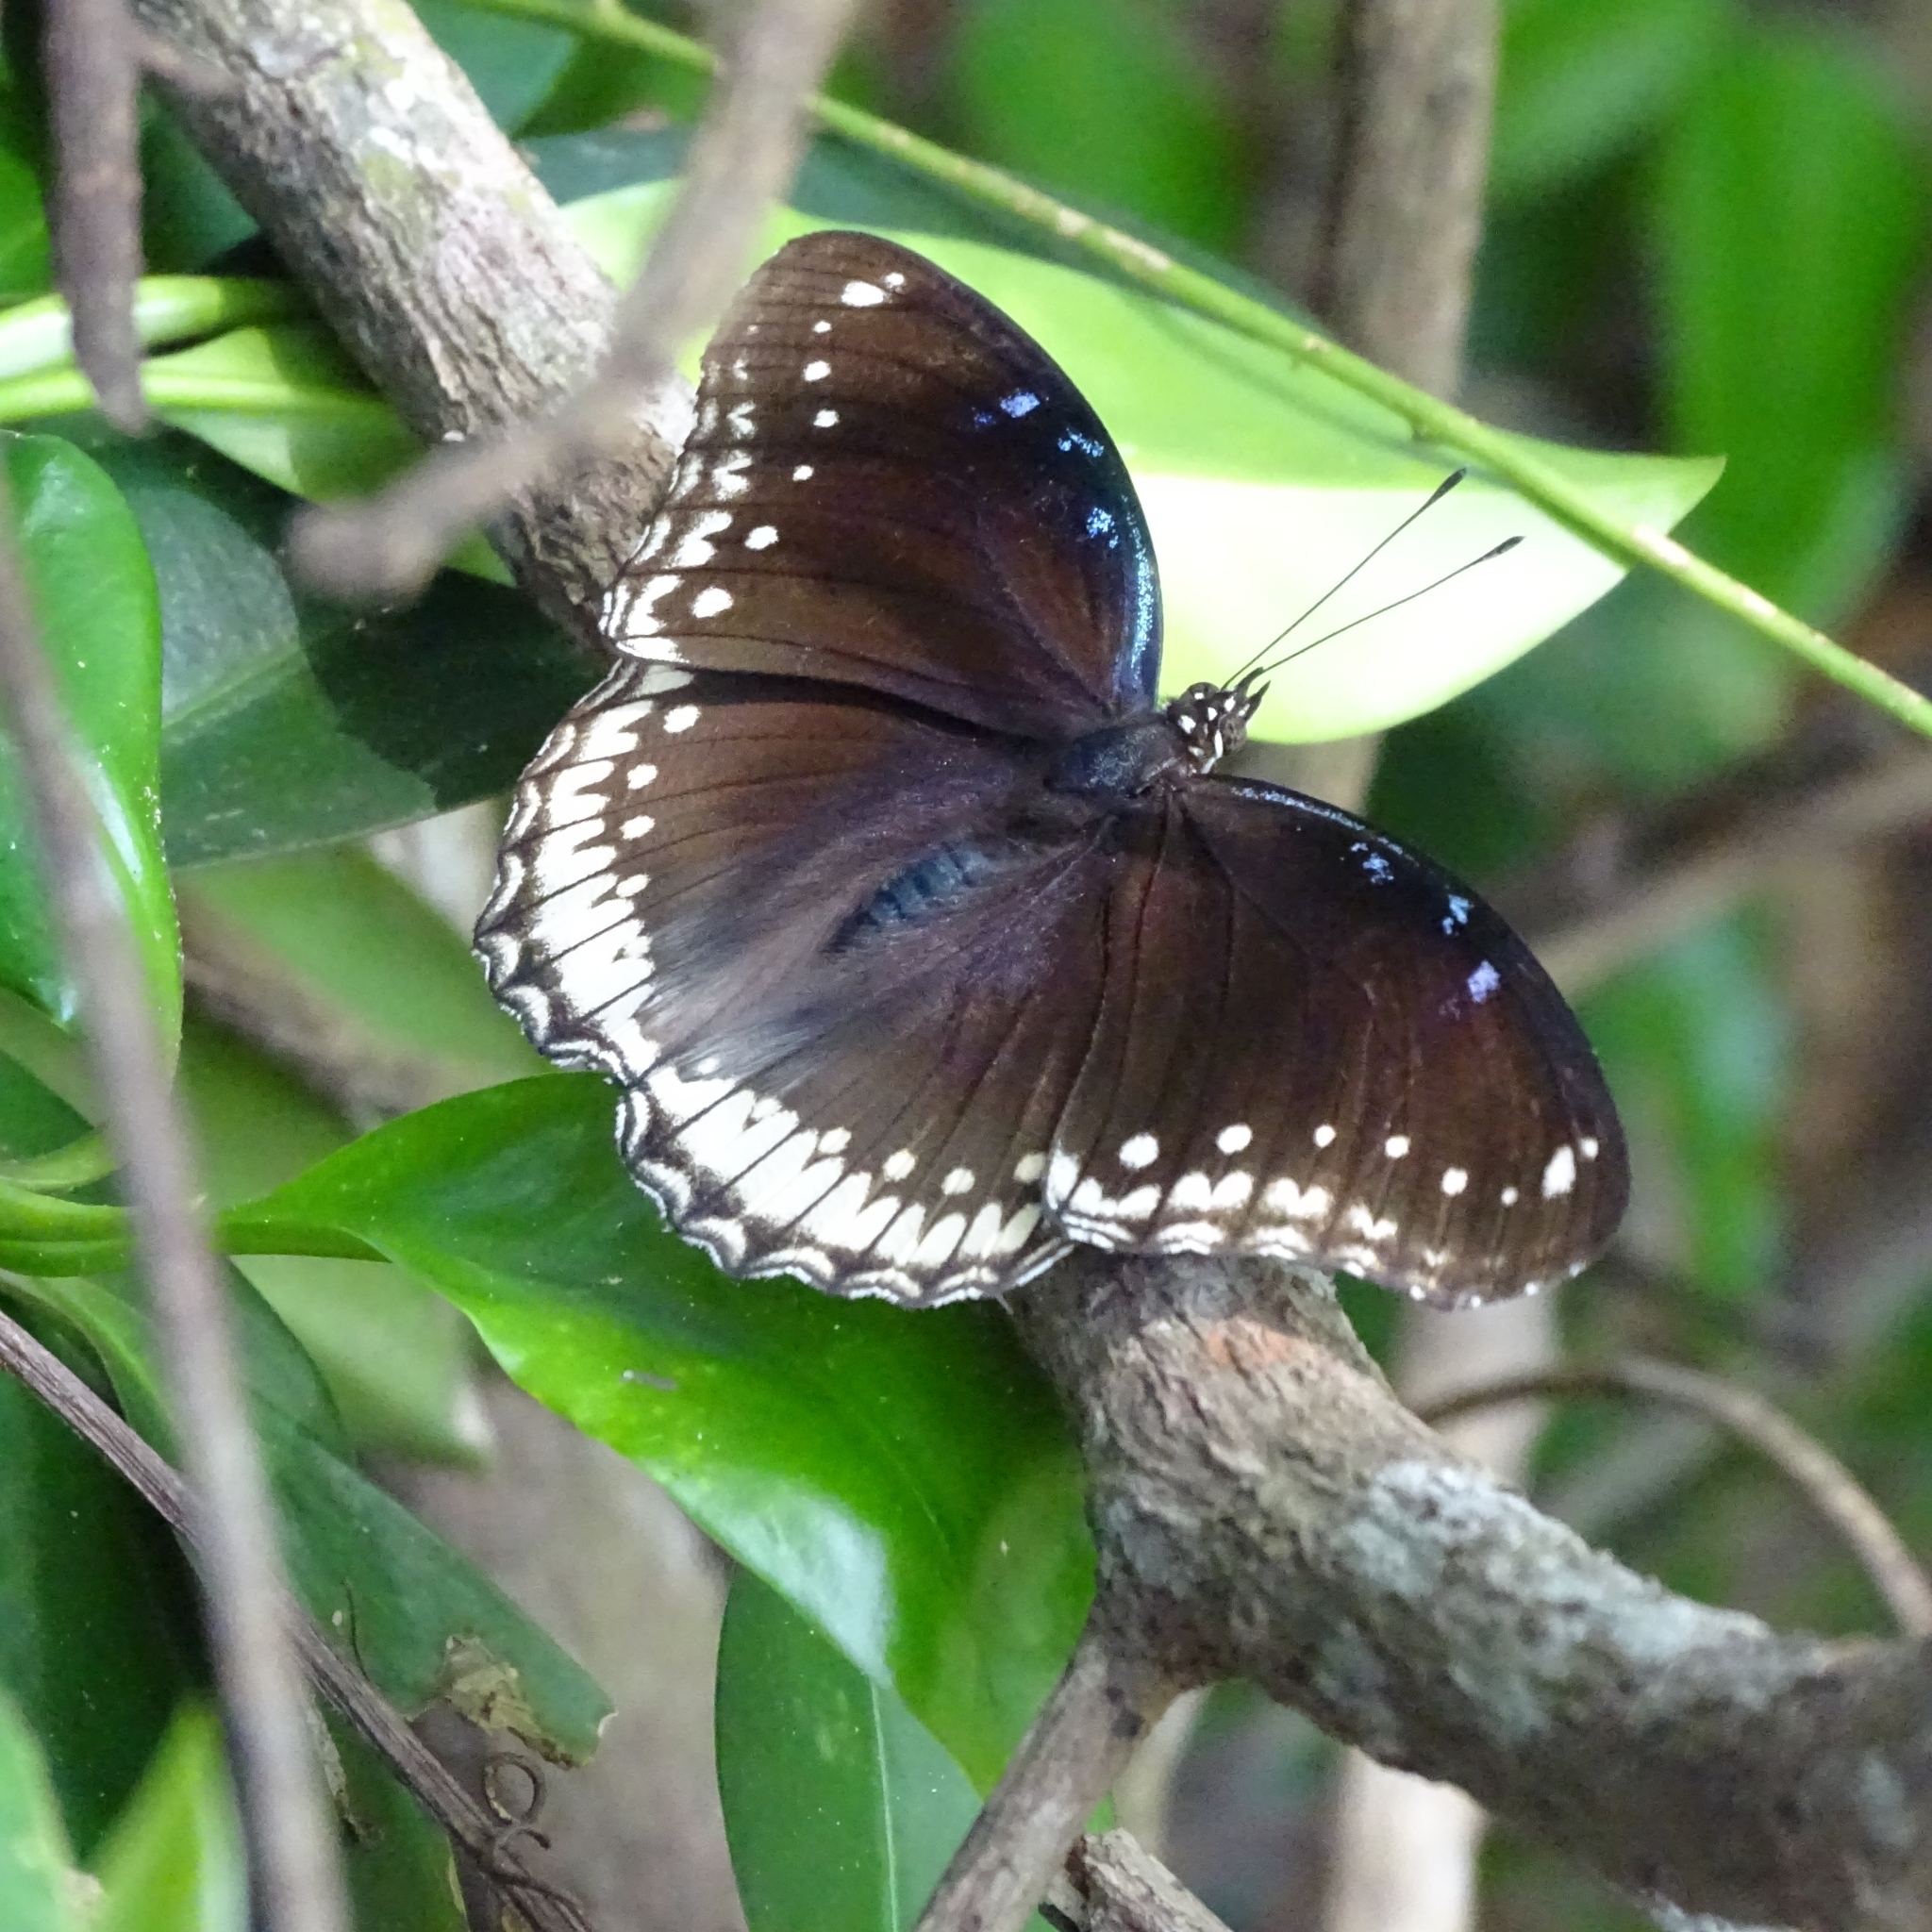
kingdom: Animalia
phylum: Arthropoda
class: Insecta
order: Lepidoptera
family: Nymphalidae
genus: Hypolimnas
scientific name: Hypolimnas bolina
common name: Great eggfly
